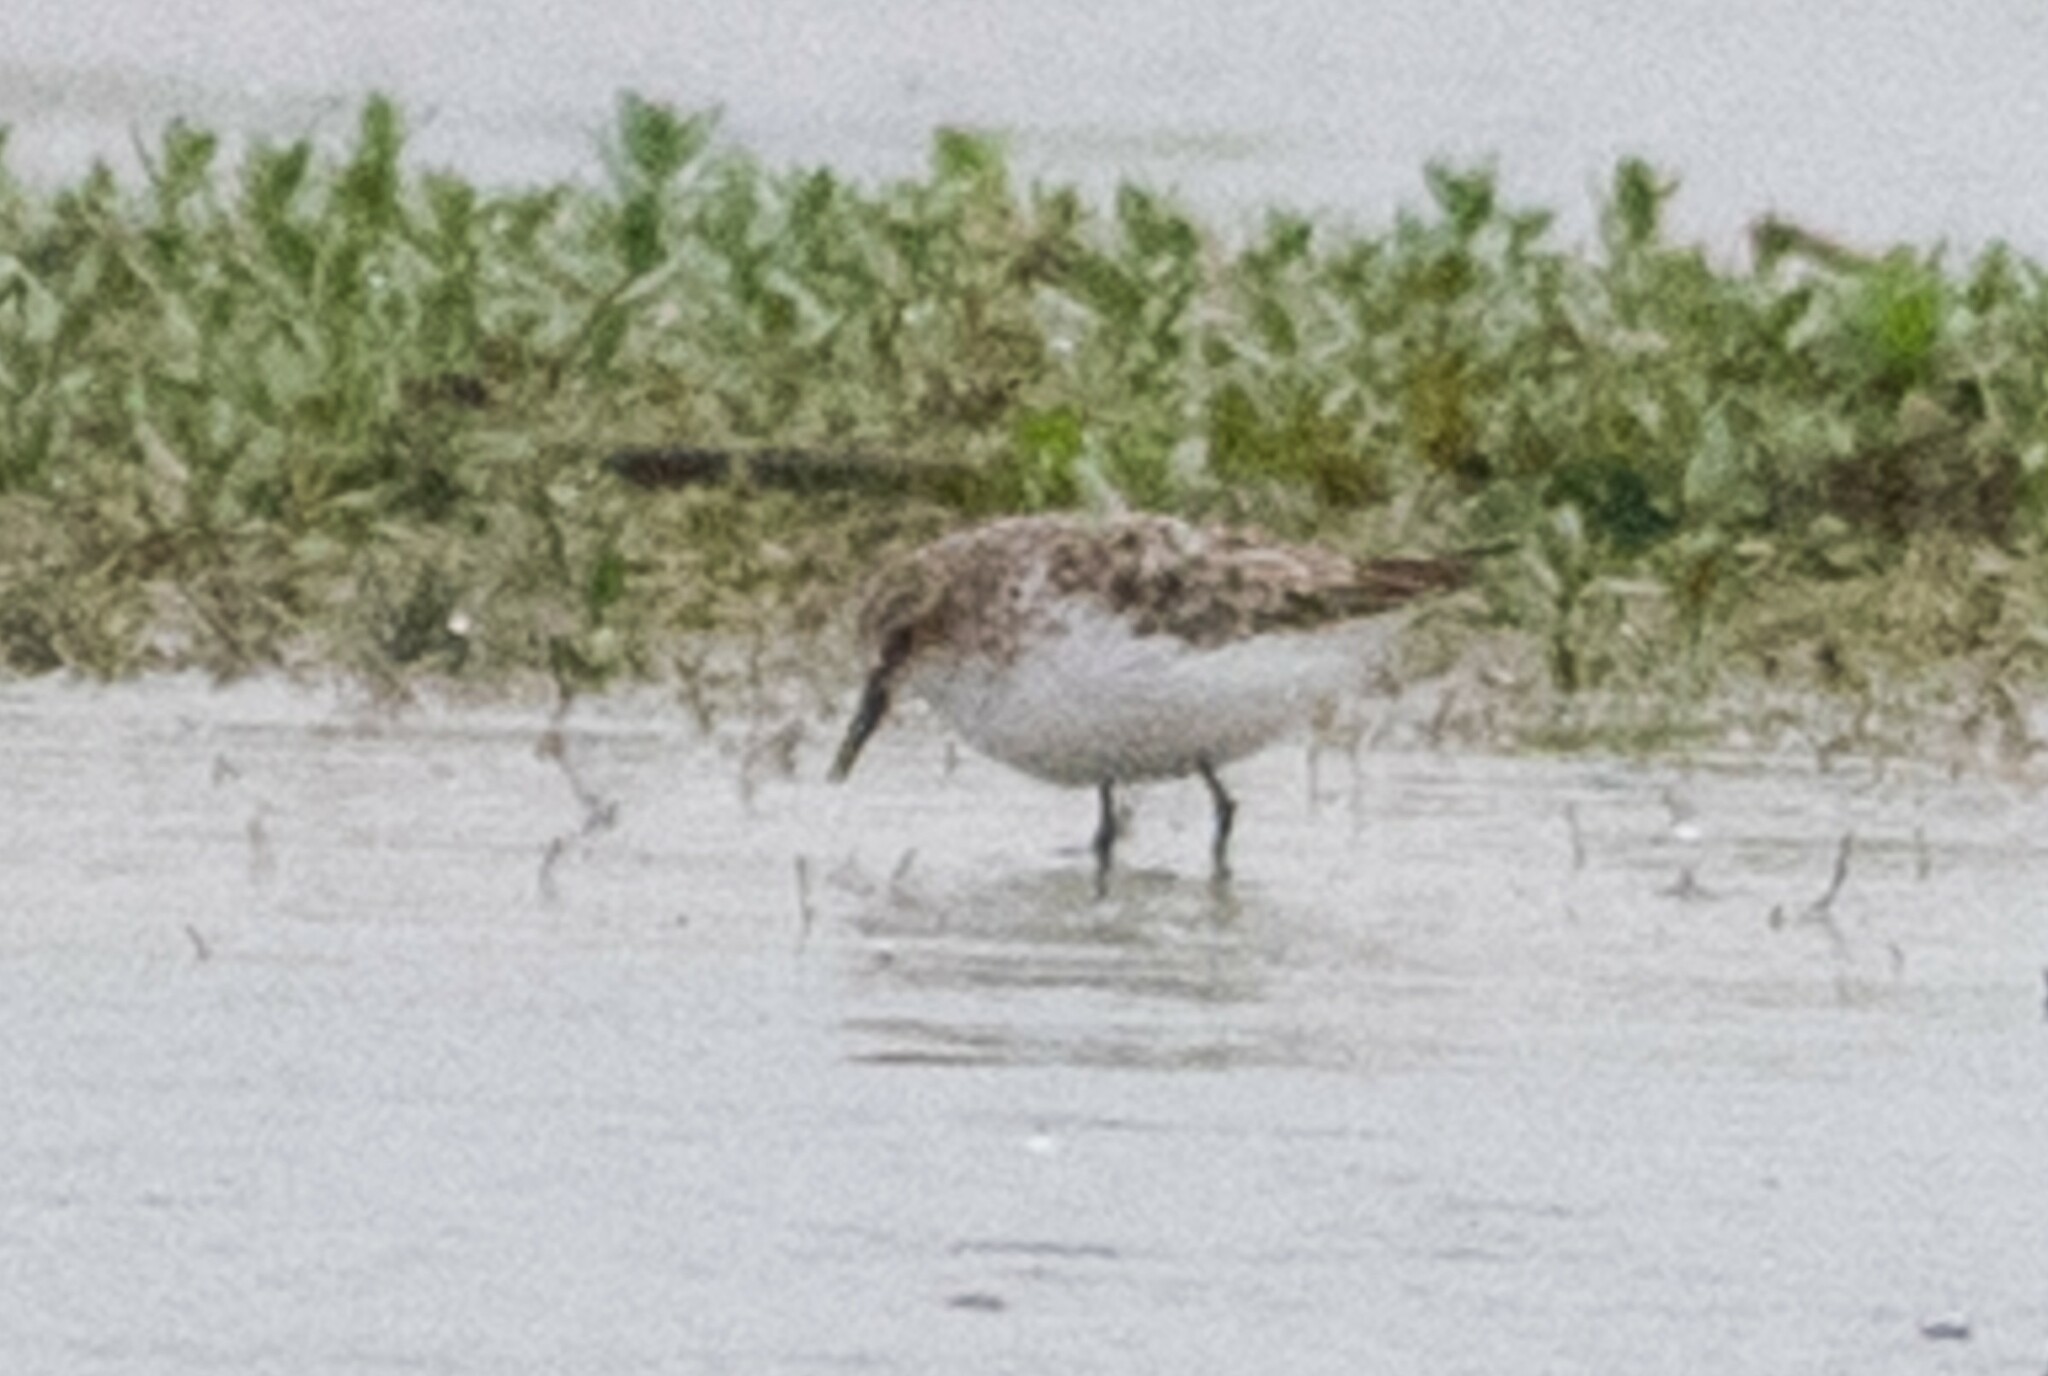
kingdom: Animalia
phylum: Chordata
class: Aves
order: Charadriiformes
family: Scolopacidae
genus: Calidris
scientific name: Calidris minuta
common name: Little stint
